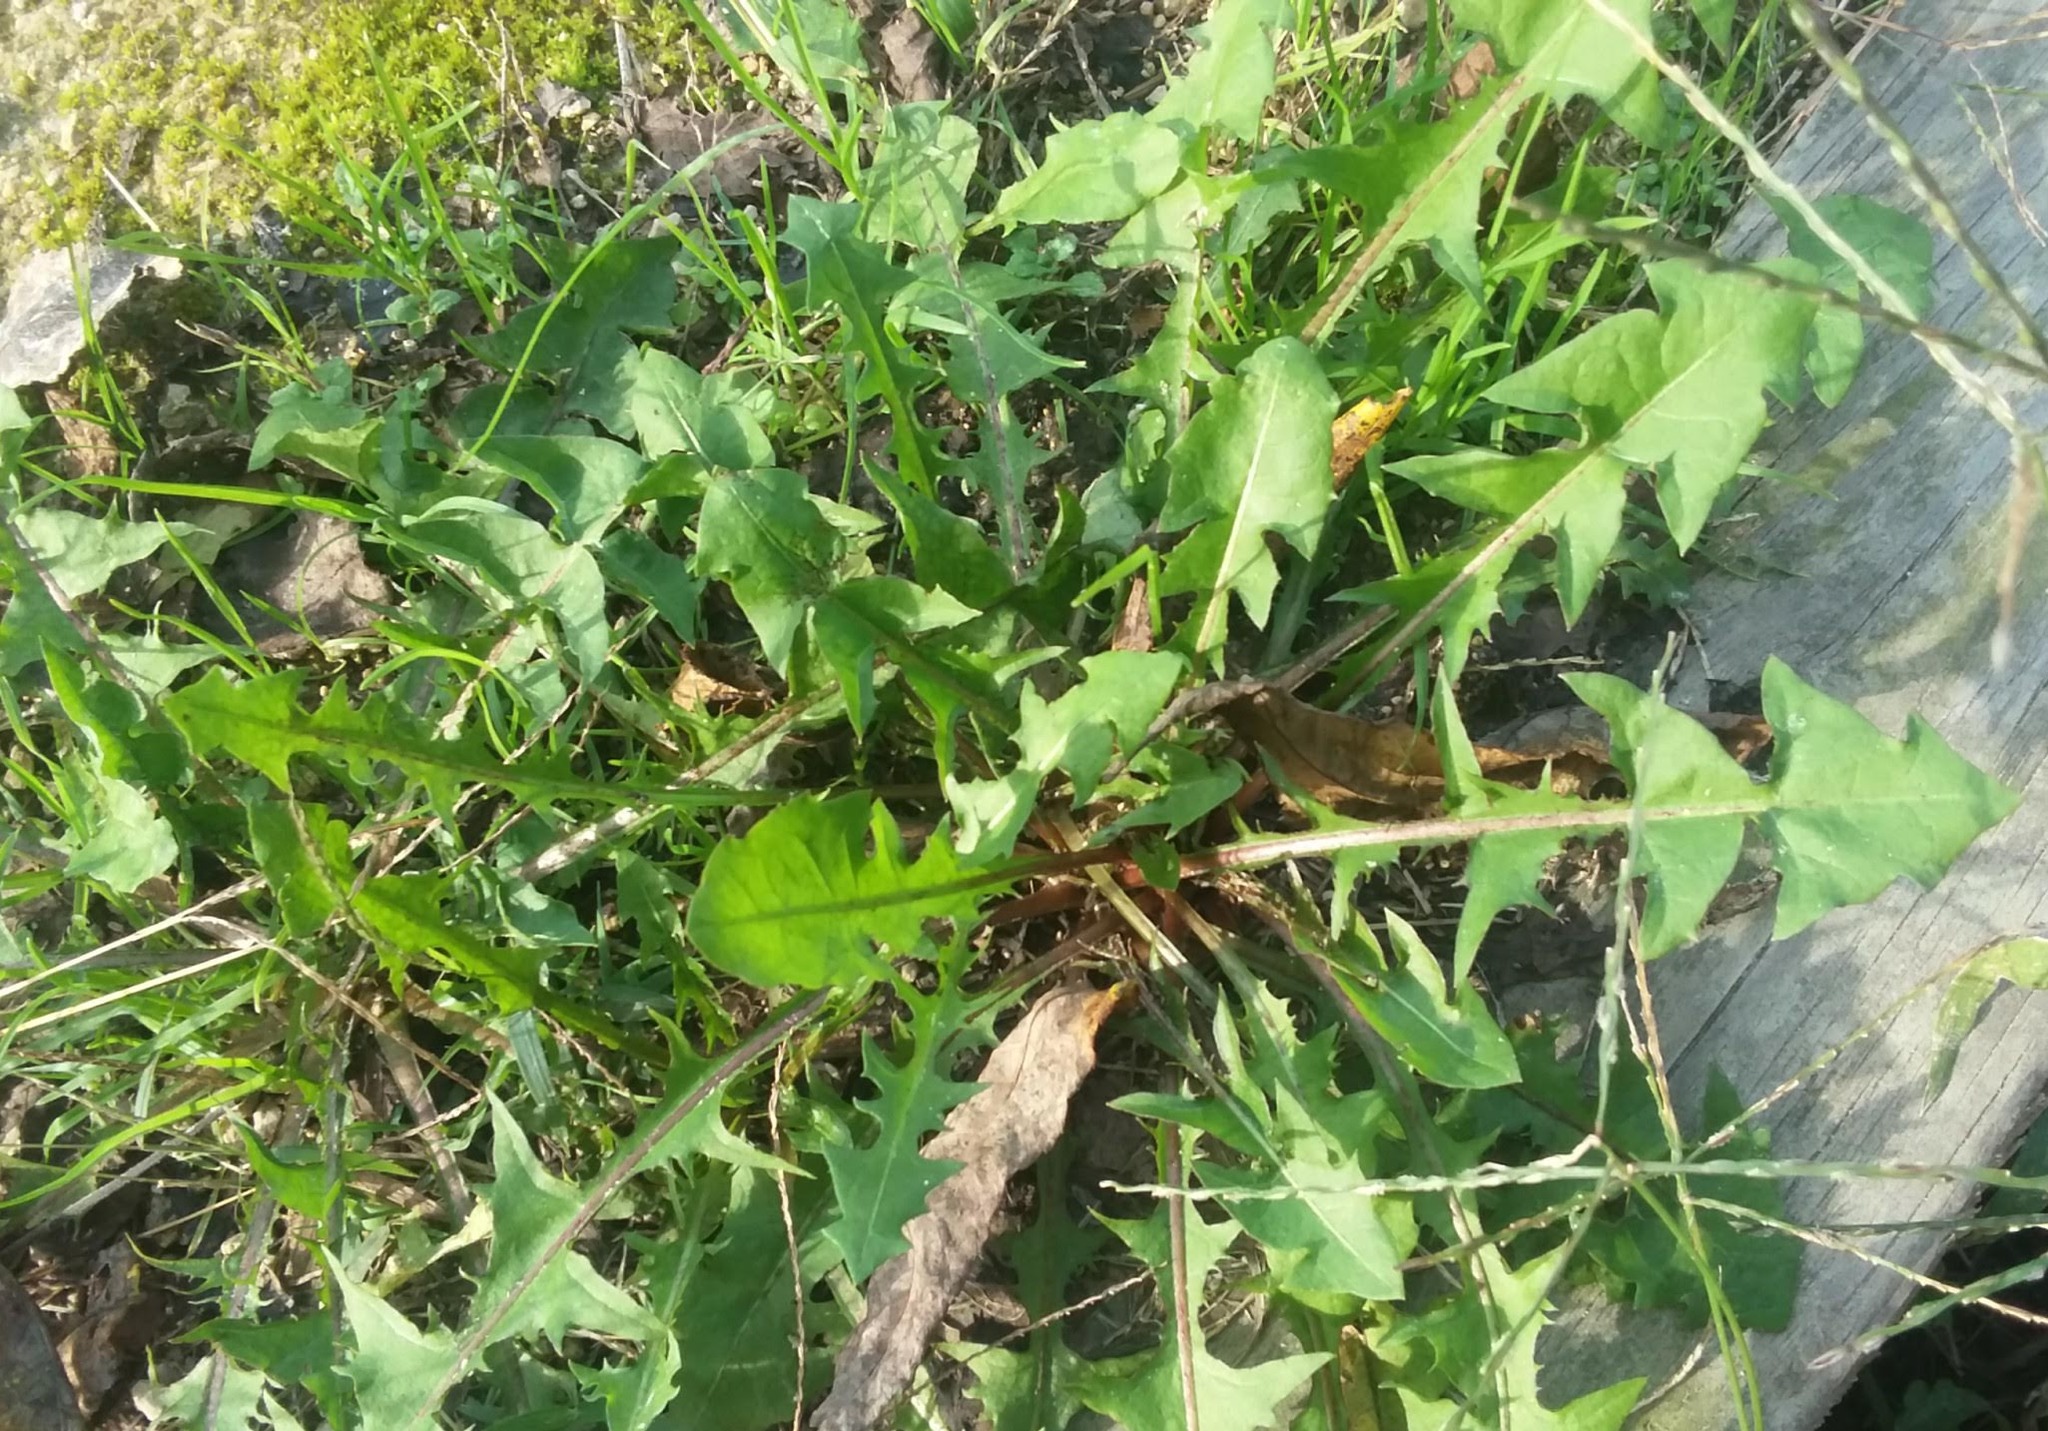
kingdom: Plantae
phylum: Tracheophyta
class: Magnoliopsida
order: Asterales
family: Asteraceae
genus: Taraxacum
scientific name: Taraxacum officinale
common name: Common dandelion
